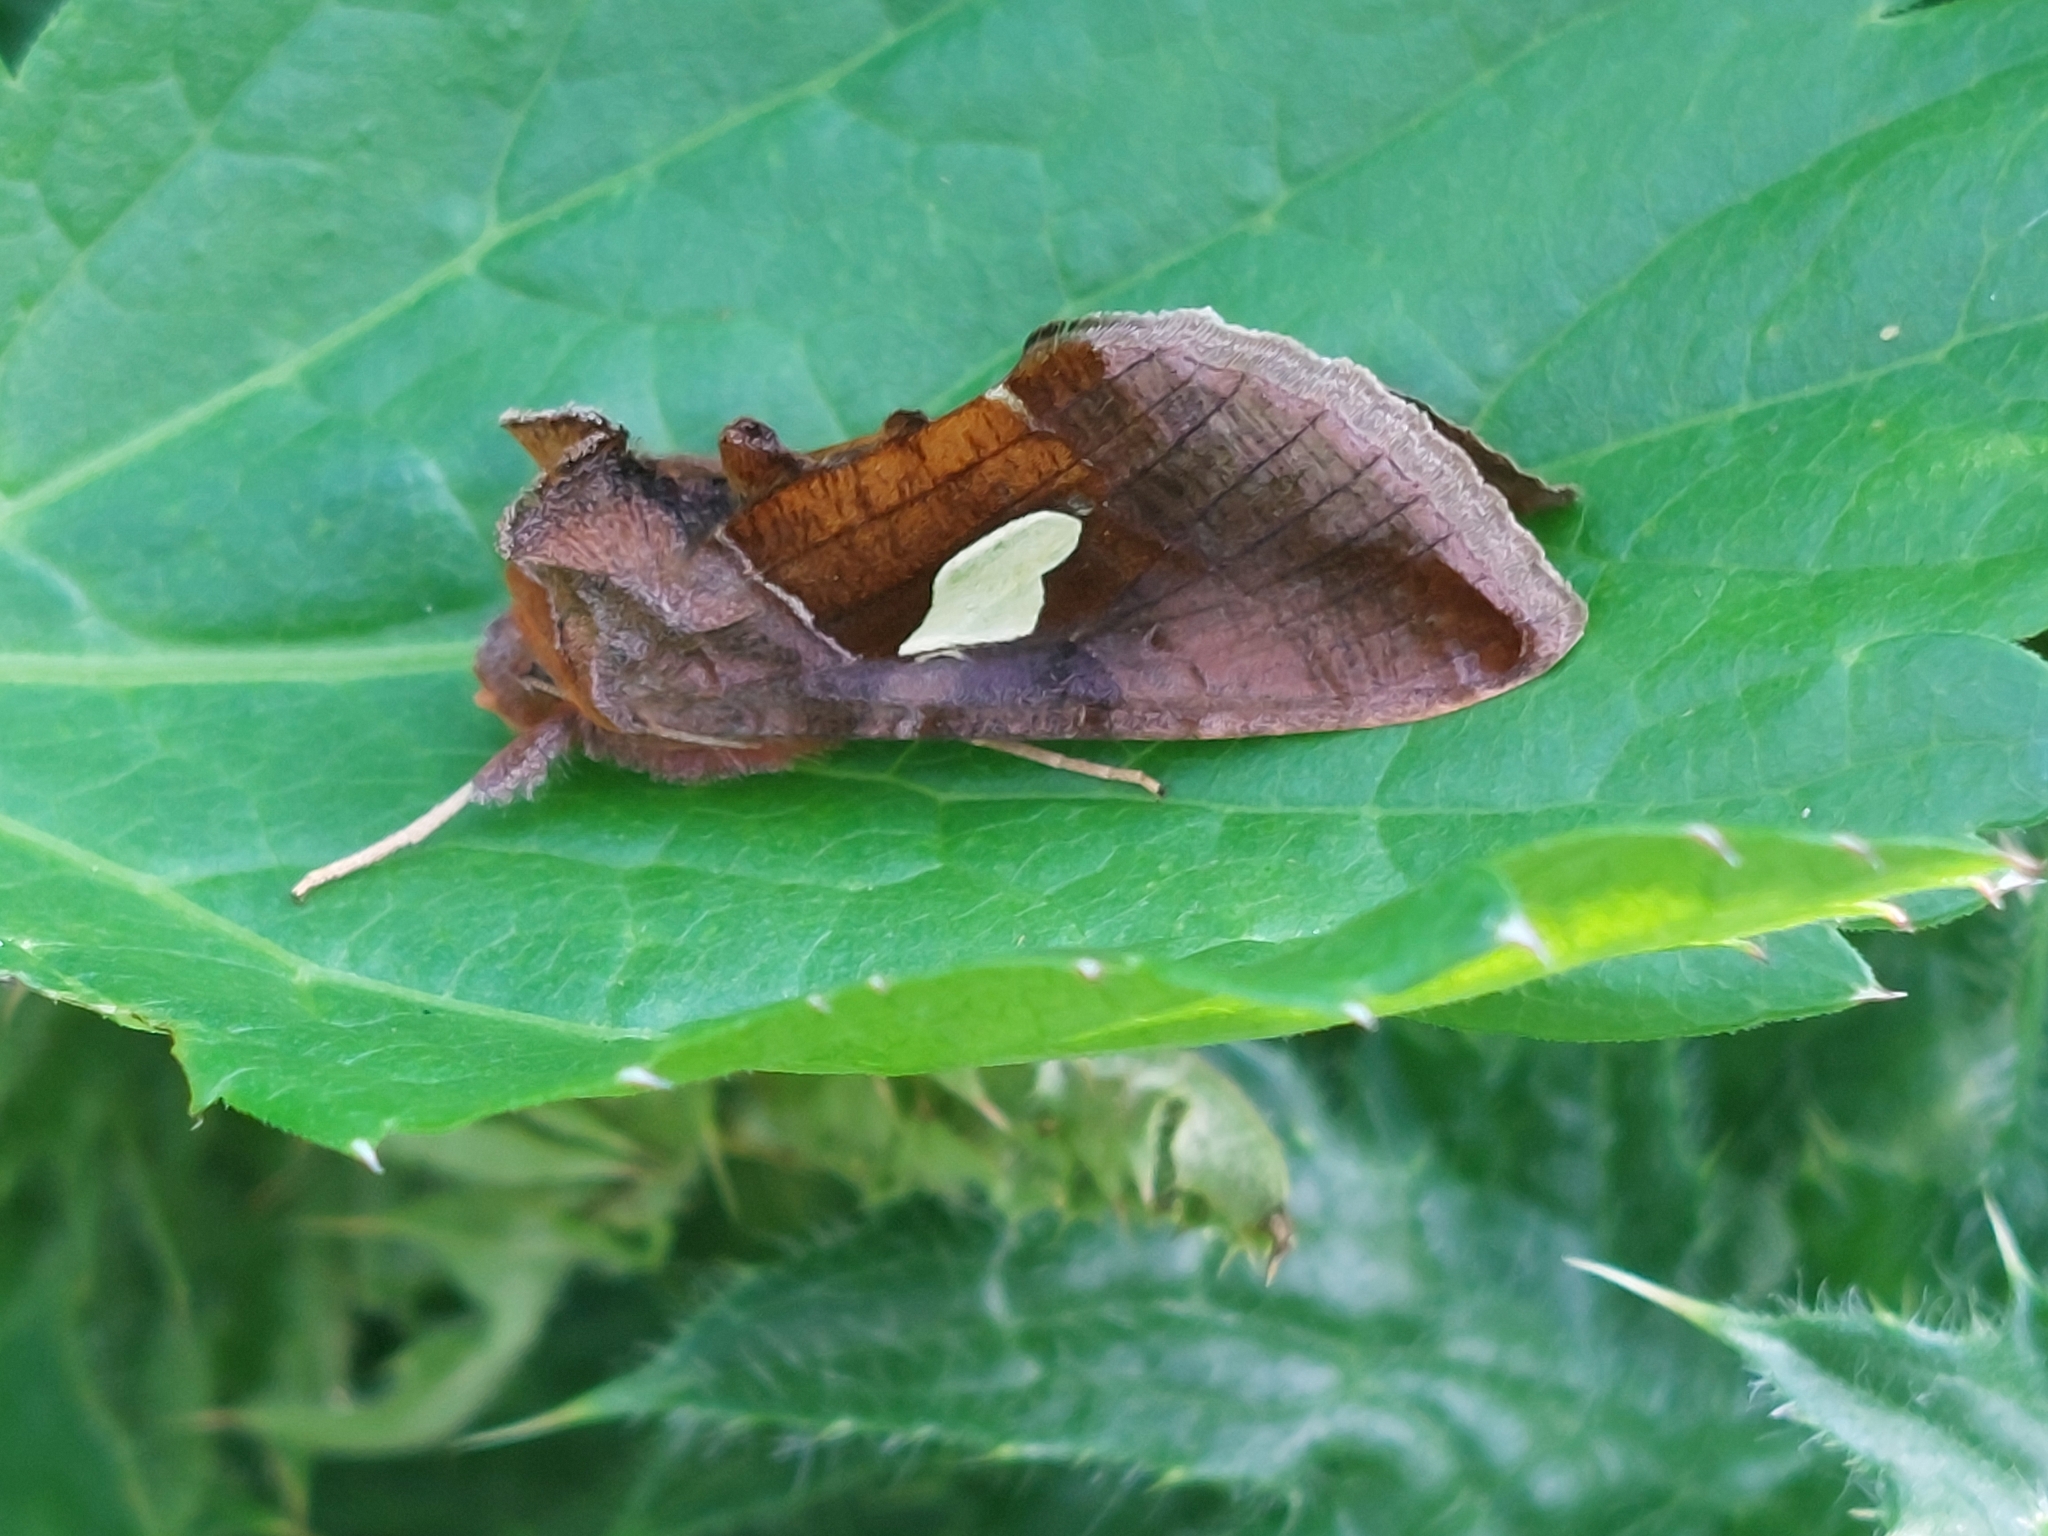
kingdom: Animalia
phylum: Arthropoda
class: Insecta
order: Lepidoptera
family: Noctuidae
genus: Autographa
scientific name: Autographa bractea
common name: Gold spangle
